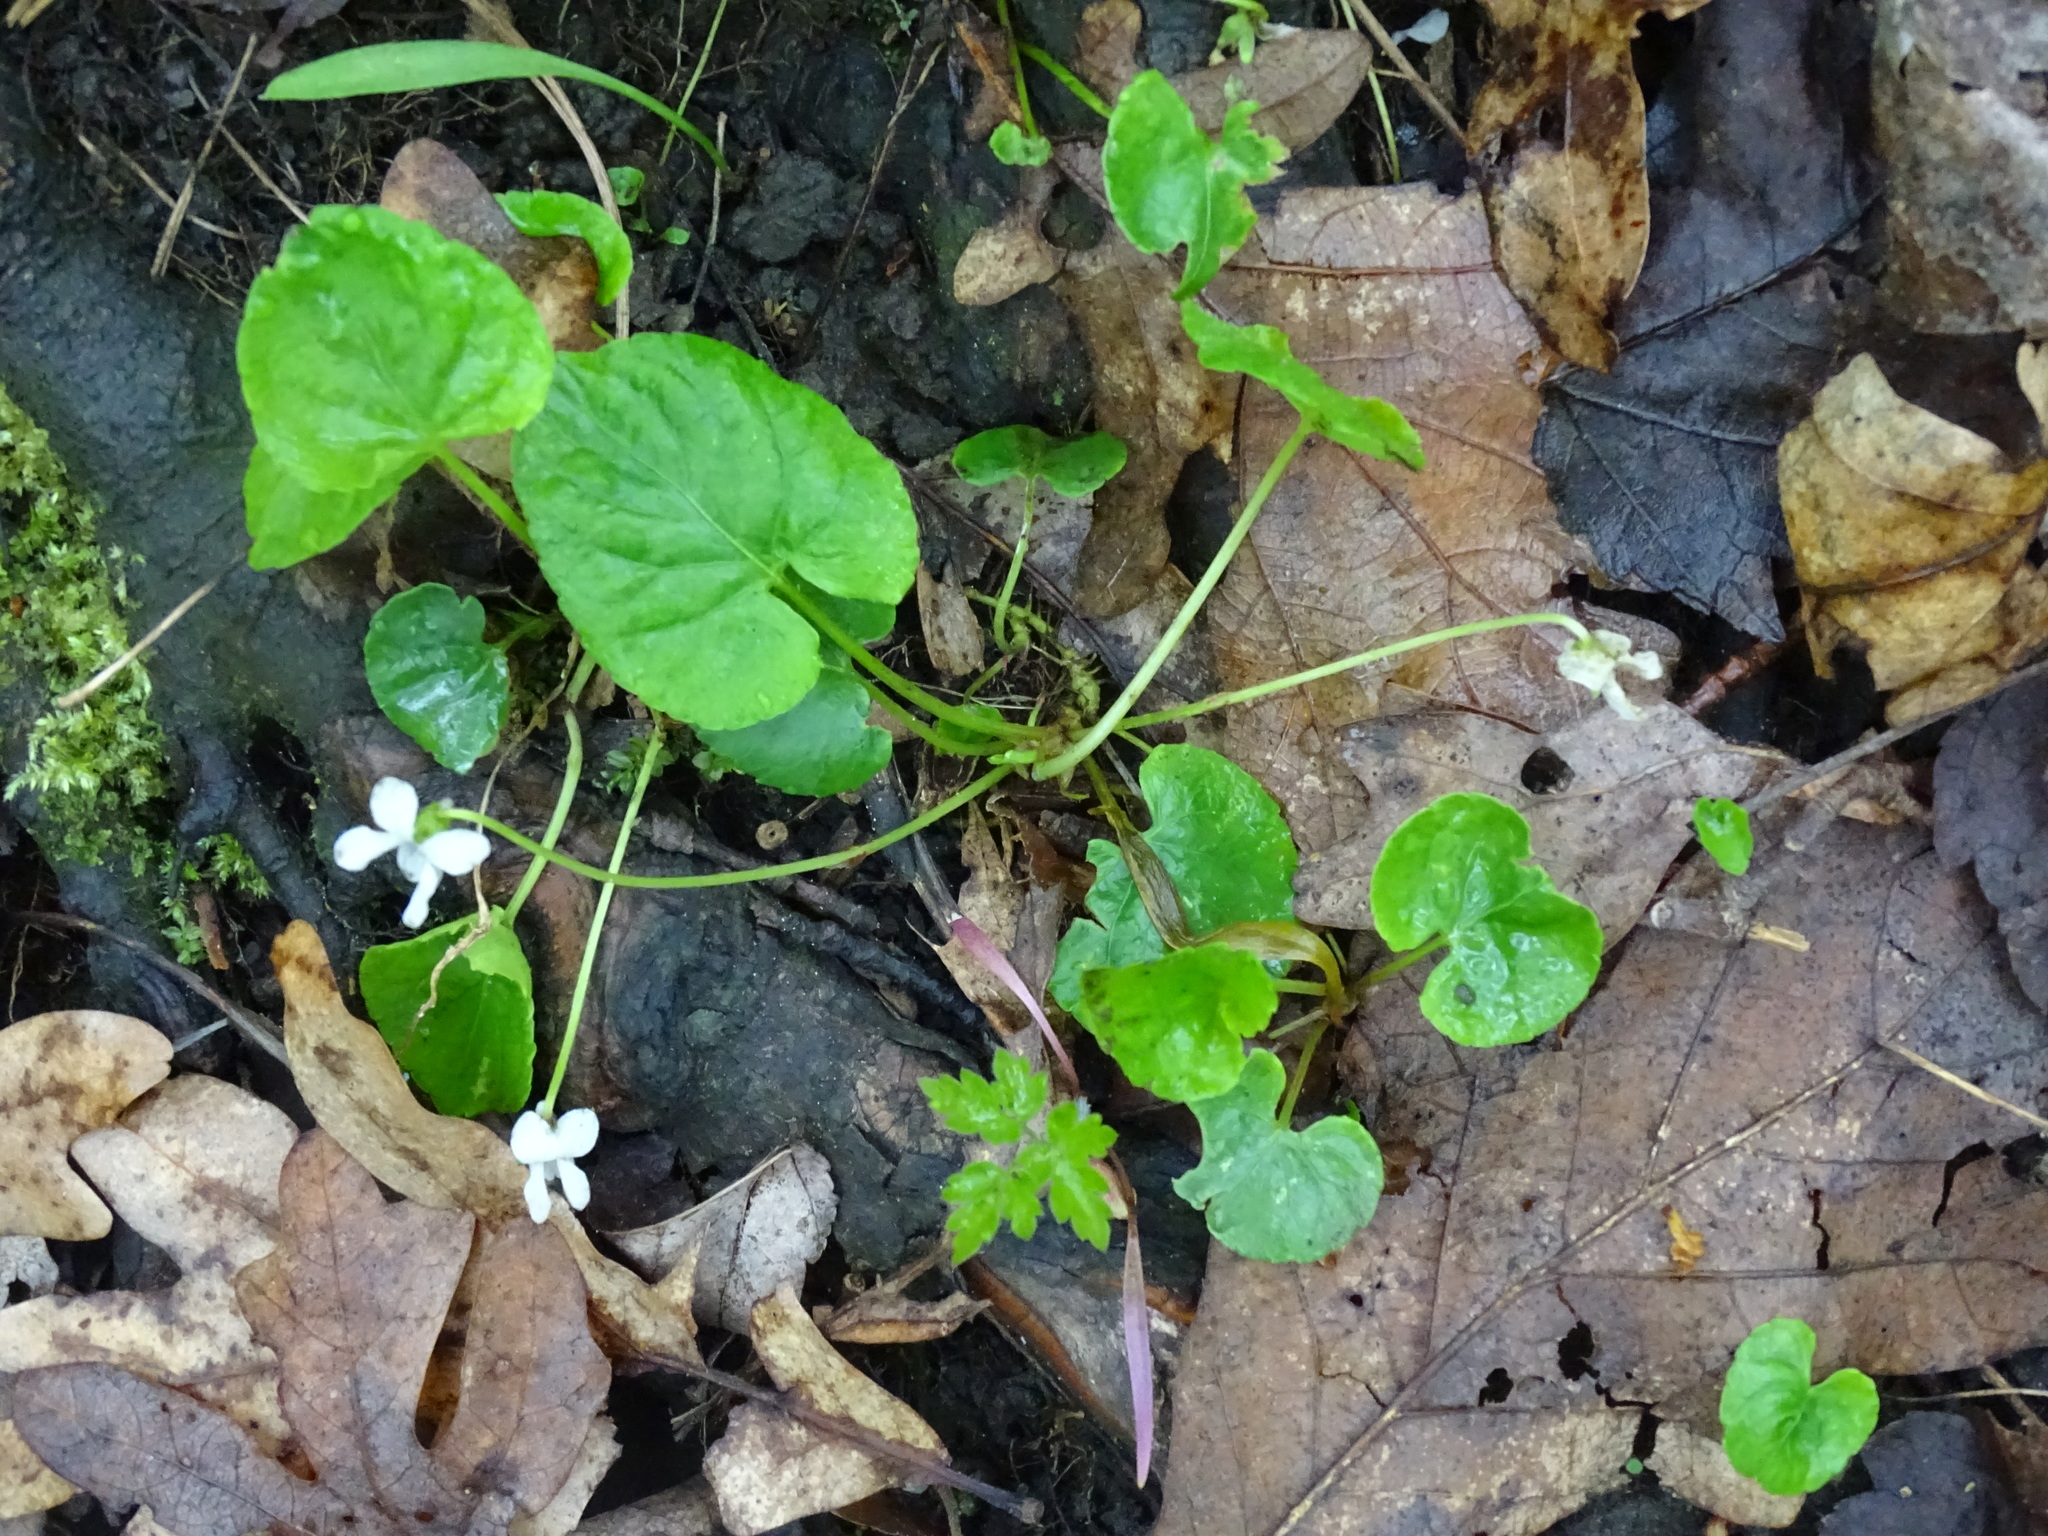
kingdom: Plantae
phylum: Tracheophyta
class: Magnoliopsida
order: Malpighiales
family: Violaceae
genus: Viola
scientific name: Viola blanda
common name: Sweet white violet
